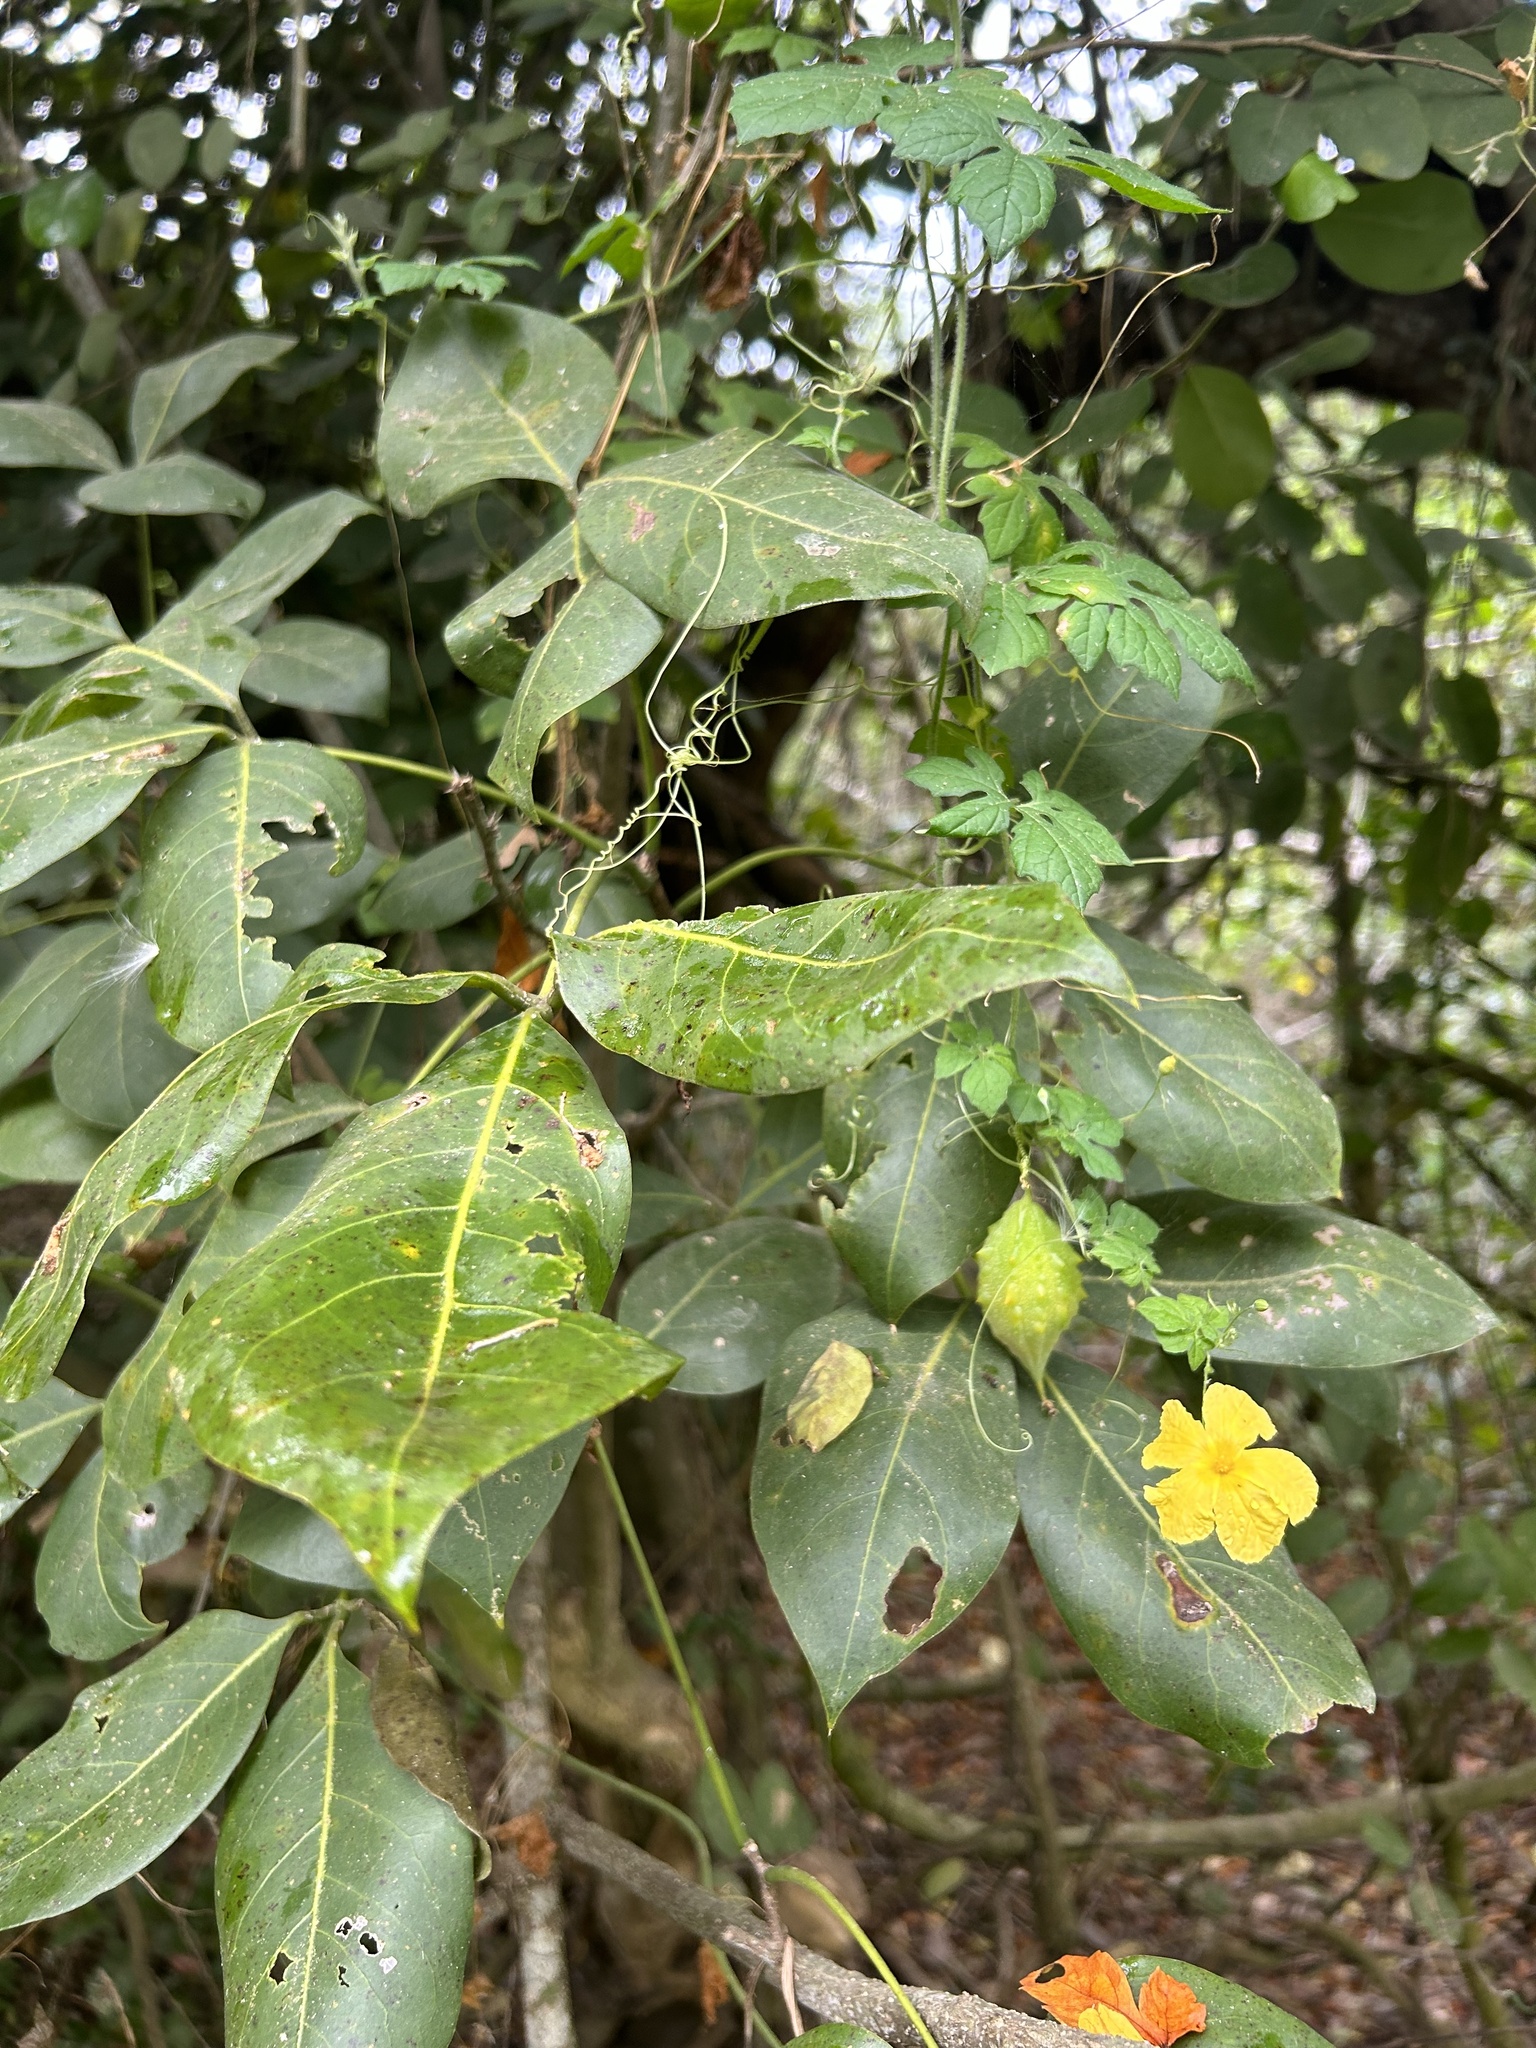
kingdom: Plantae
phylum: Tracheophyta
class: Magnoliopsida
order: Cucurbitales
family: Cucurbitaceae
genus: Momordica
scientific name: Momordica charantia
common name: Balsampear
